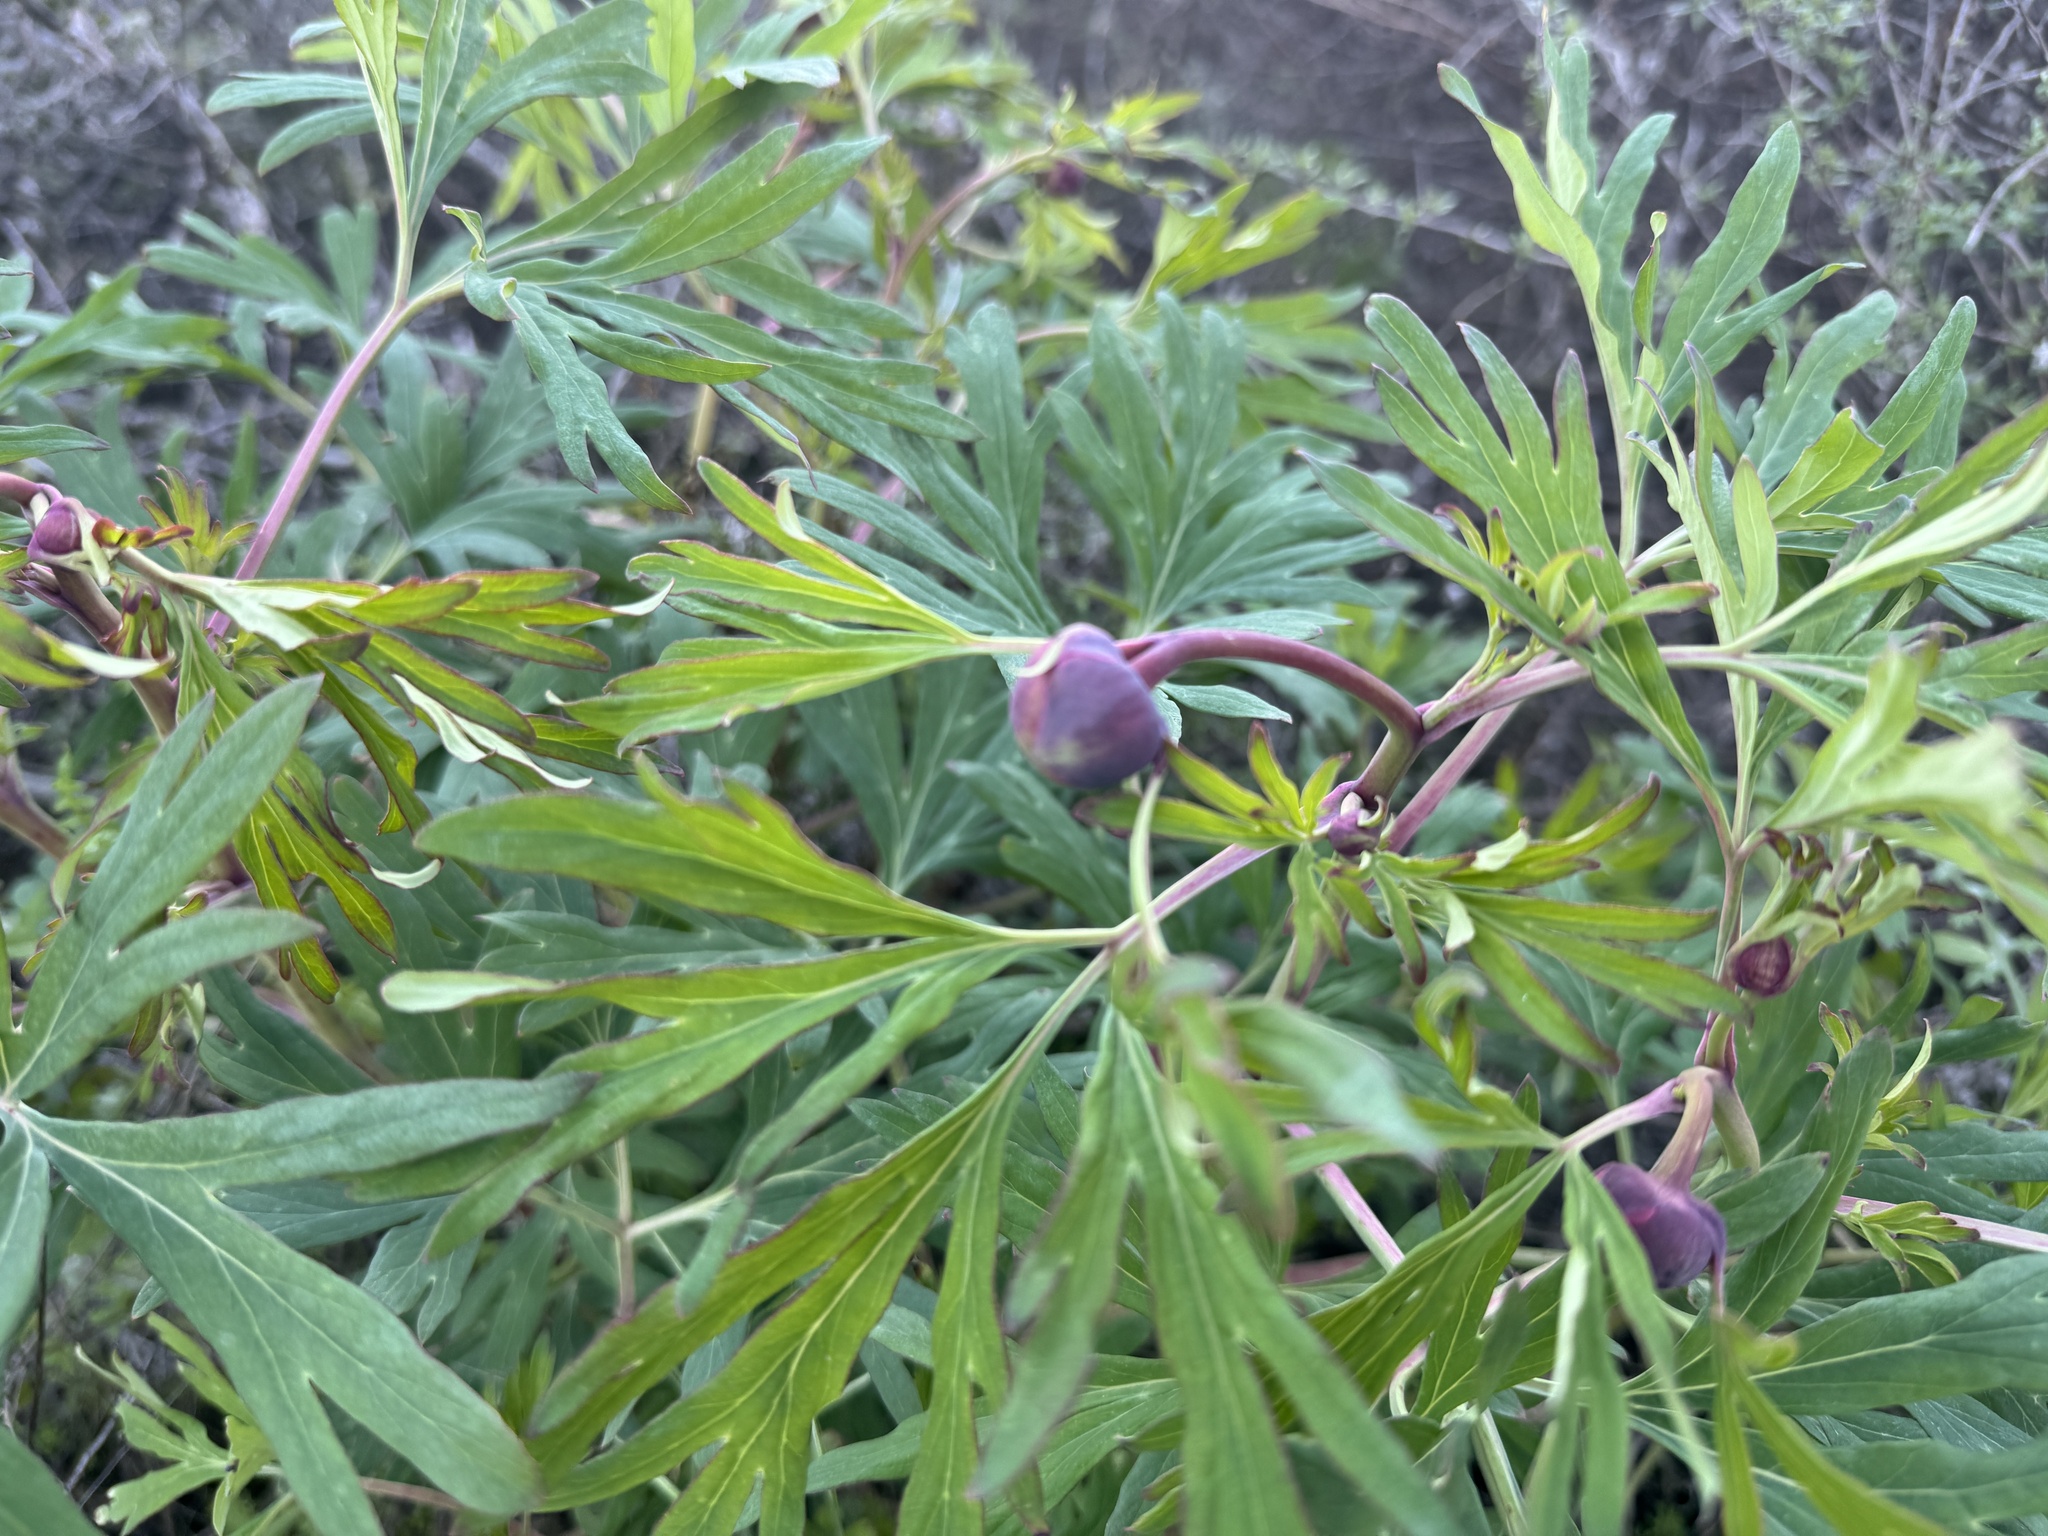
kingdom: Plantae
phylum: Tracheophyta
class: Magnoliopsida
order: Saxifragales
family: Paeoniaceae
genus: Paeonia
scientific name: Paeonia californica
